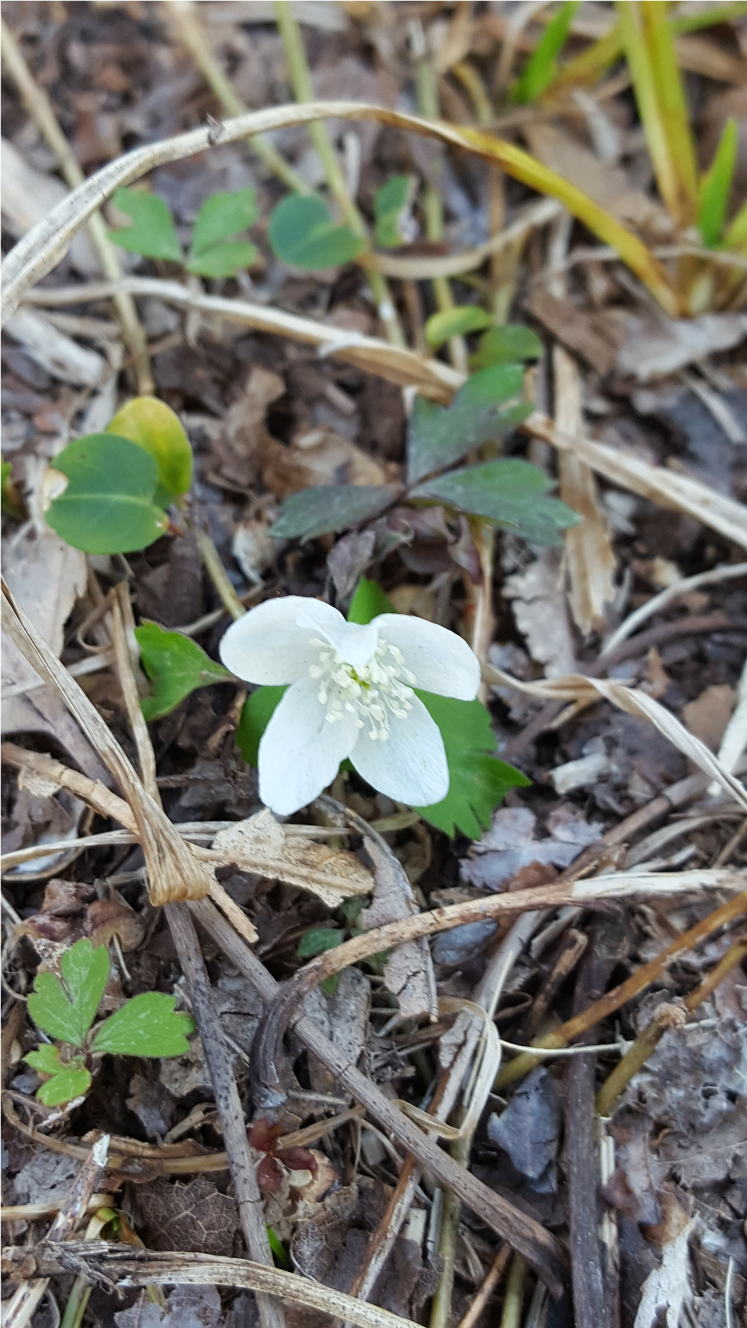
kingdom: Plantae
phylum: Tracheophyta
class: Magnoliopsida
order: Ranunculales
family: Ranunculaceae
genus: Anemone
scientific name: Anemone quinquefolia
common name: Wood anemone
